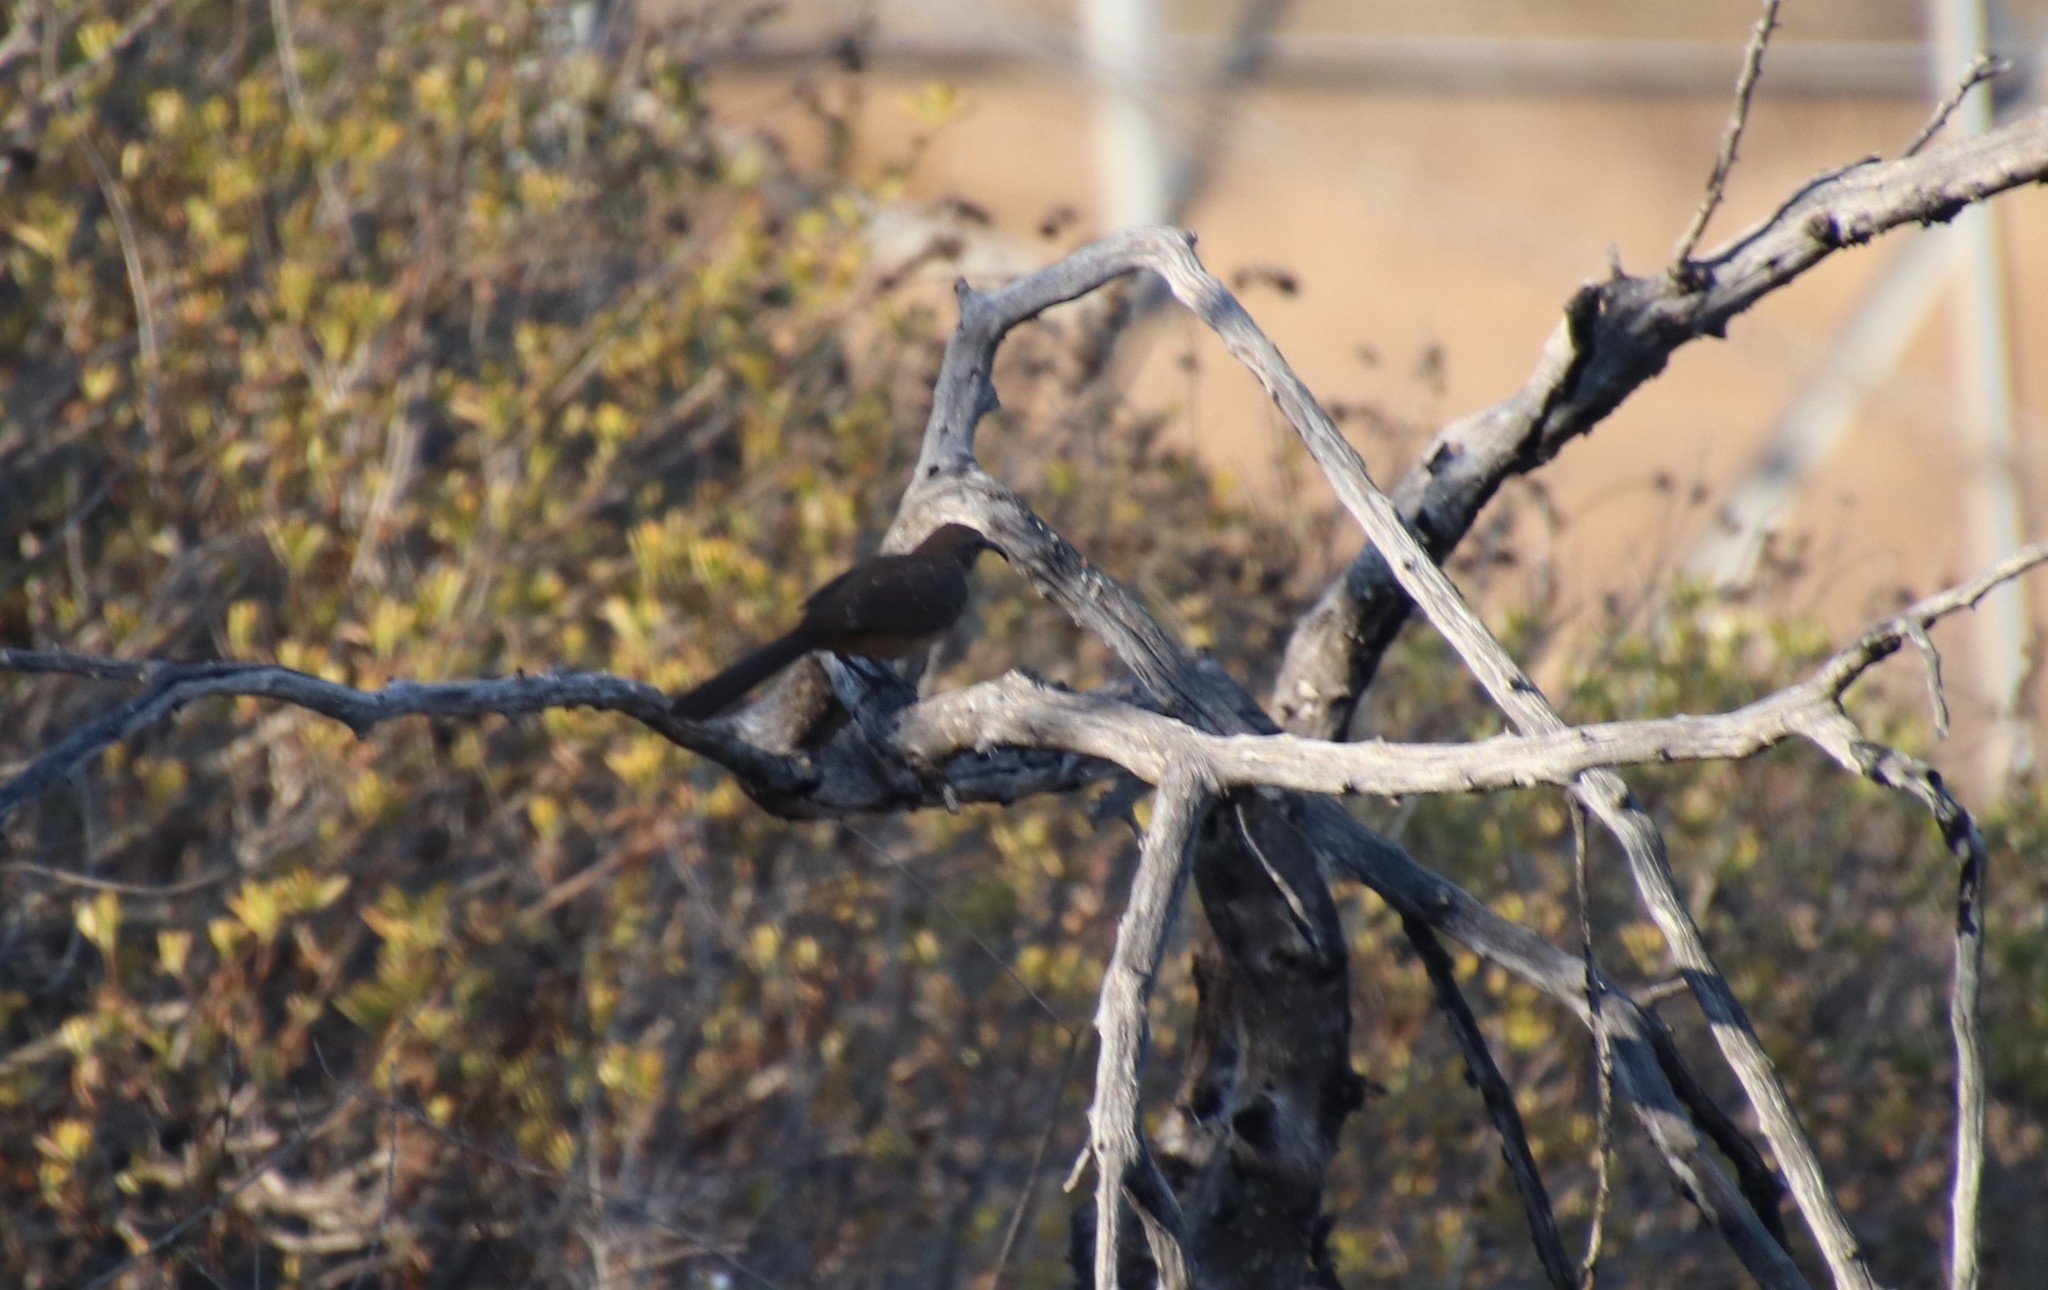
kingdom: Animalia
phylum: Chordata
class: Aves
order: Passeriformes
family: Mimidae
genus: Toxostoma
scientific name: Toxostoma redivivum
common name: California thrasher
